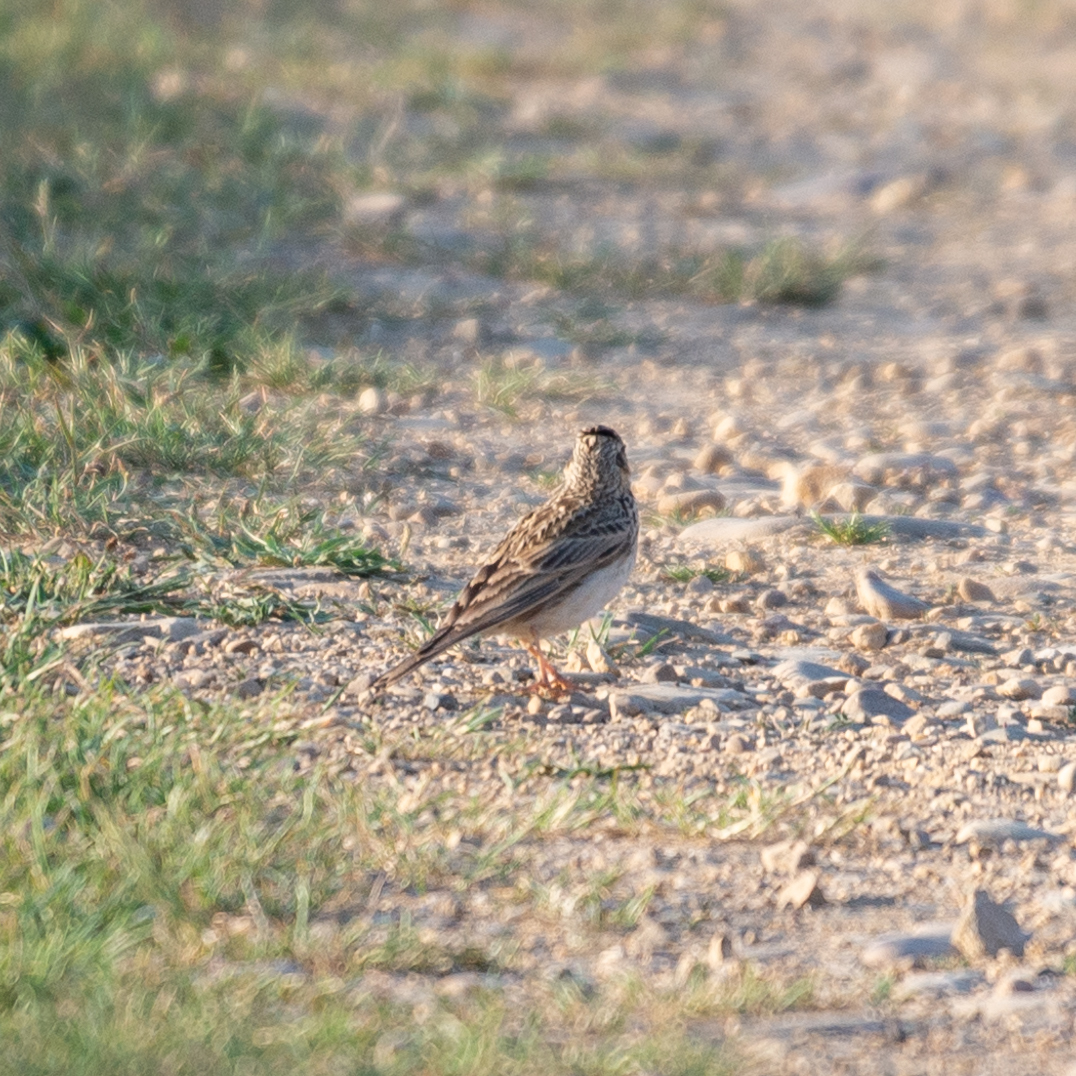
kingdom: Animalia
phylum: Chordata
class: Aves
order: Passeriformes
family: Alaudidae
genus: Alauda
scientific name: Alauda arvensis
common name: Eurasian skylark
